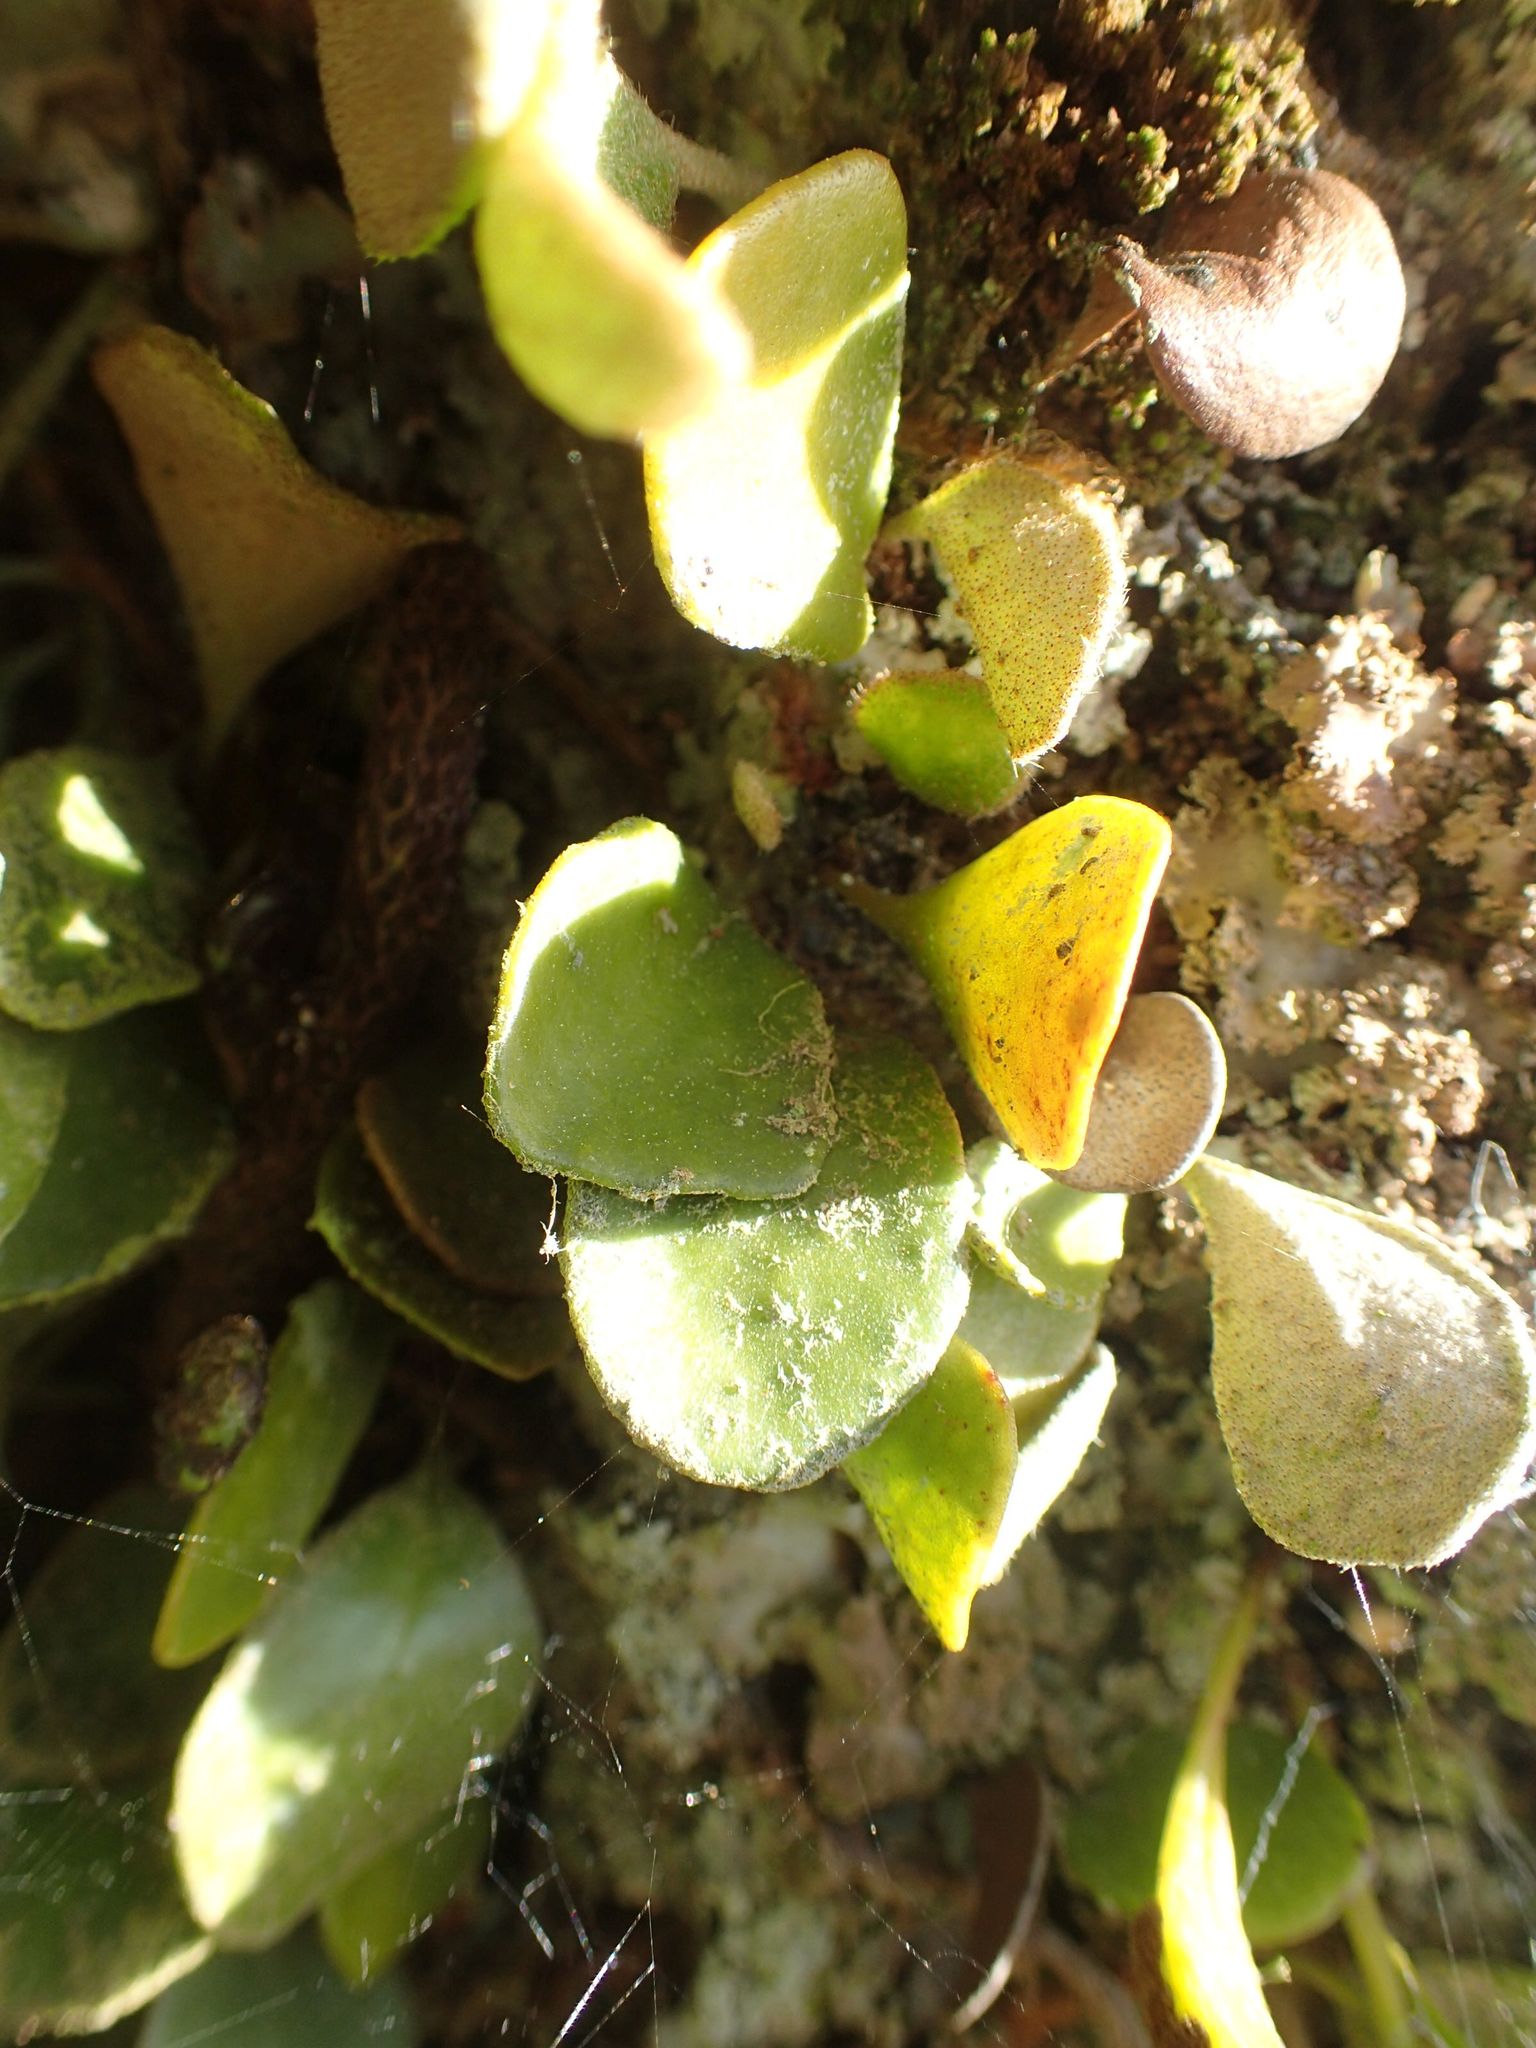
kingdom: Plantae
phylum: Tracheophyta
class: Polypodiopsida
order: Polypodiales
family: Polypodiaceae
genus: Pyrrosia
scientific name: Pyrrosia eleagnifolia
